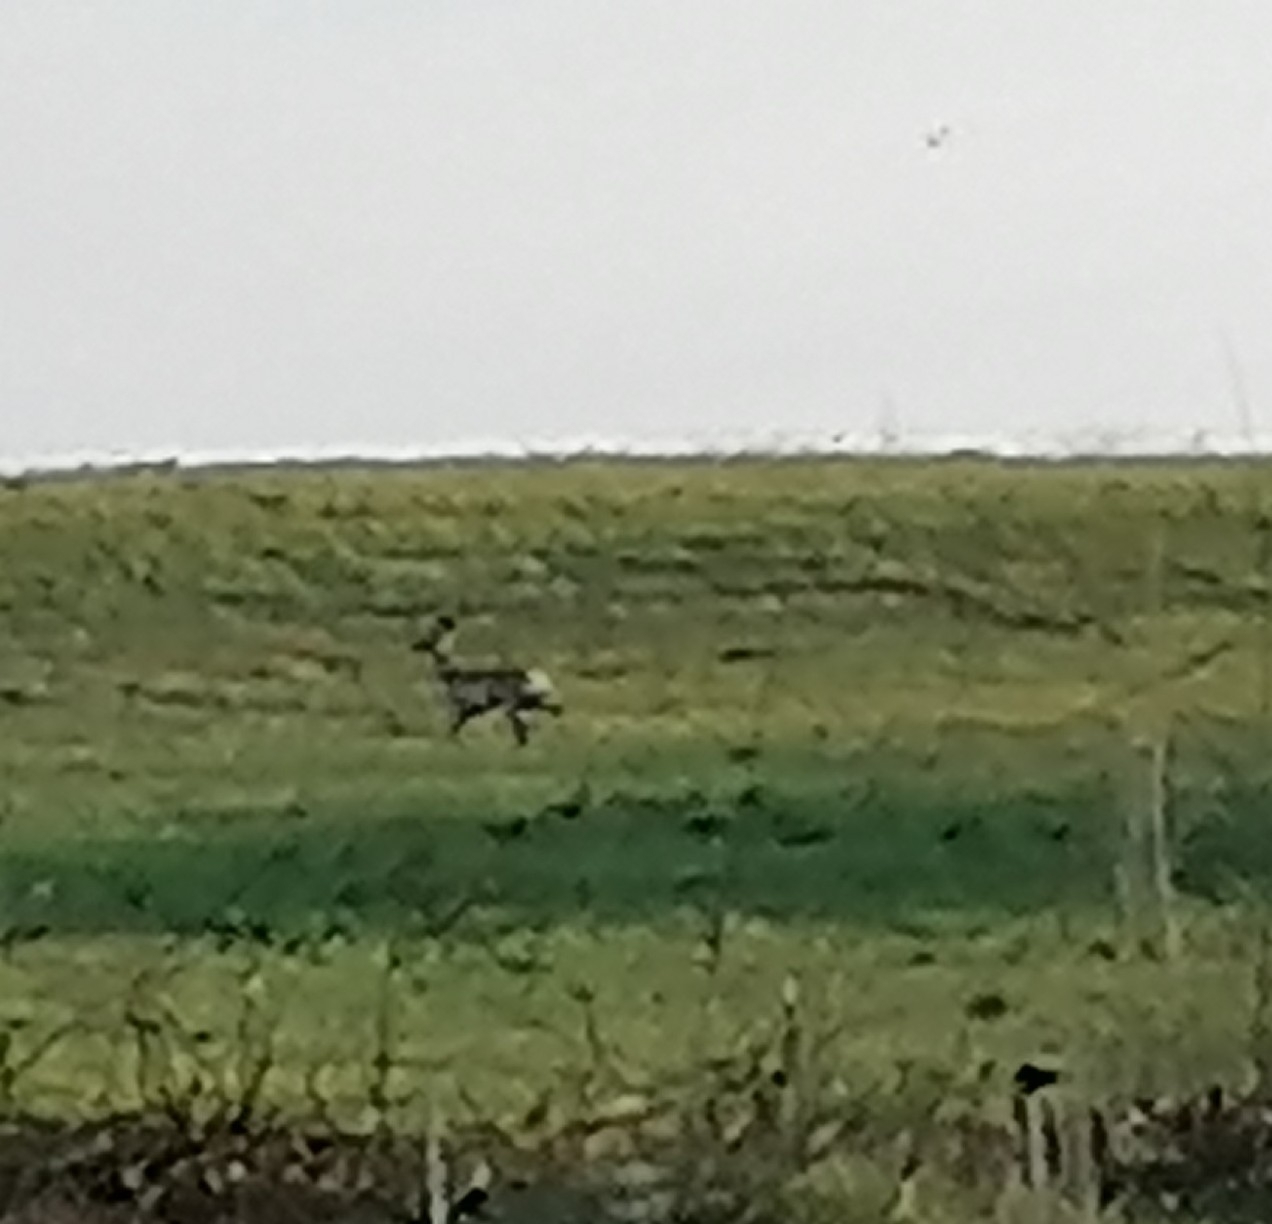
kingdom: Animalia
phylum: Chordata
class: Mammalia
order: Artiodactyla
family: Cervidae
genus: Capreolus
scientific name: Capreolus capreolus
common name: Western roe deer
